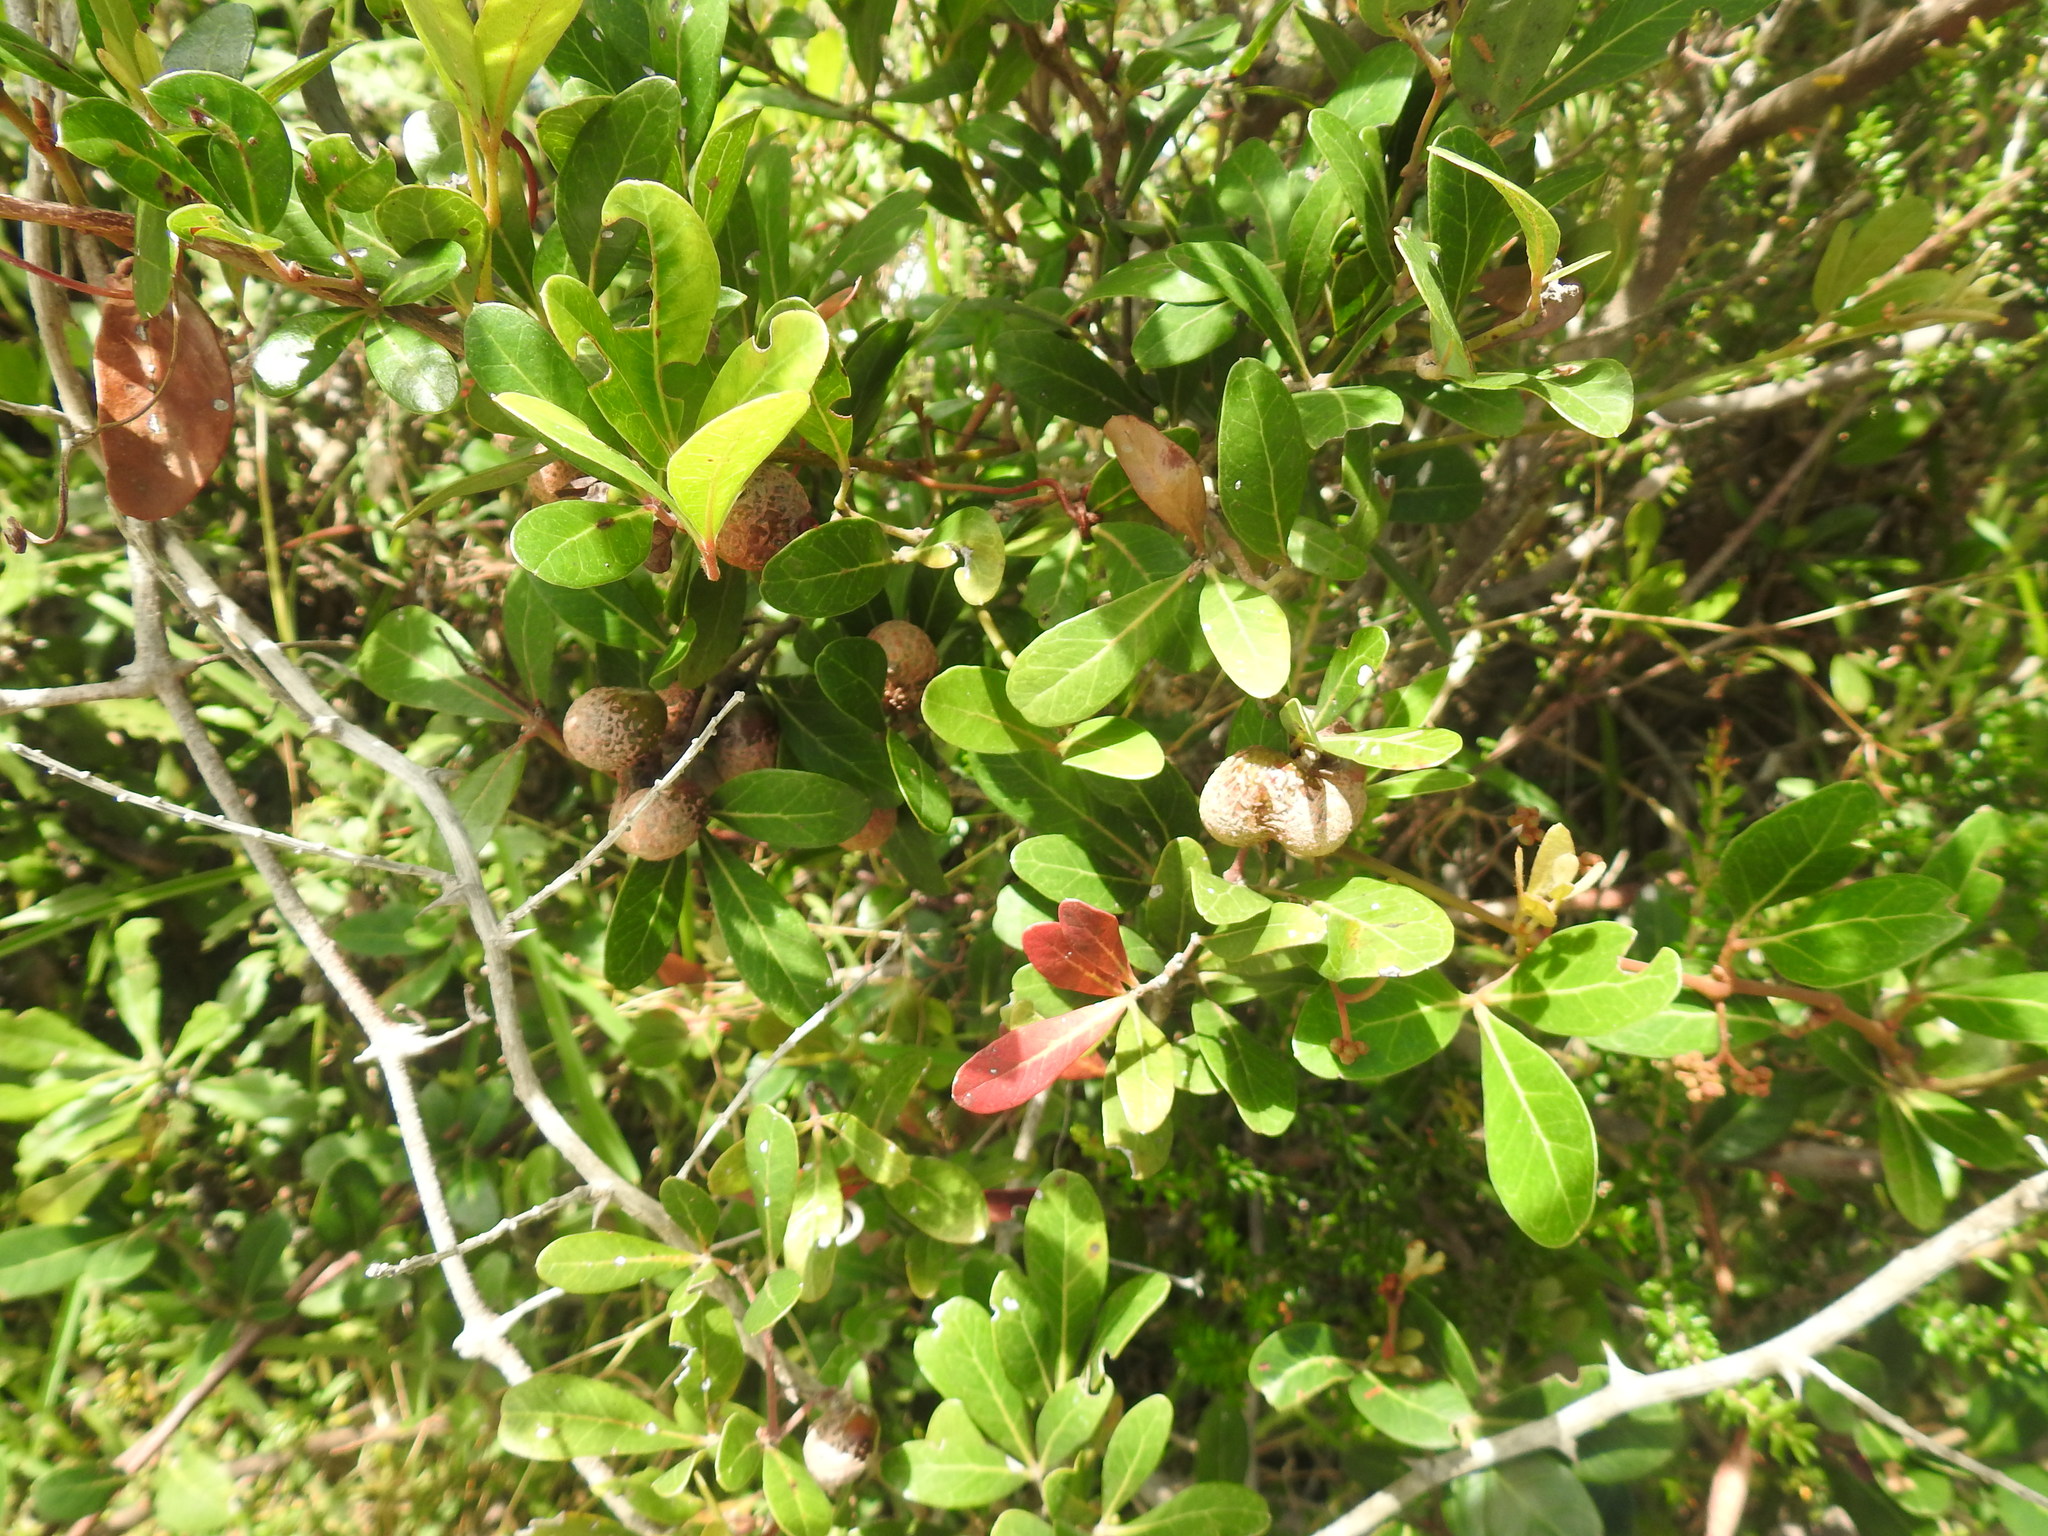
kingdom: Plantae
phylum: Tracheophyta
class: Magnoliopsida
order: Vitales
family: Vitaceae
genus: Rhoicissus
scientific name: Rhoicissus digitata
